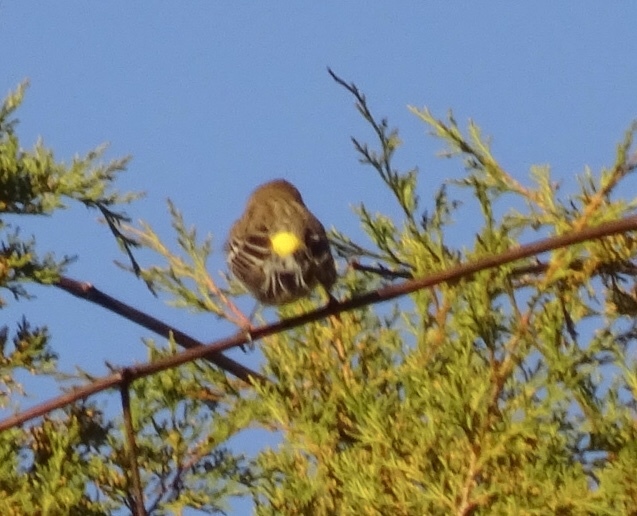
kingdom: Animalia
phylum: Chordata
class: Aves
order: Passeriformes
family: Parulidae
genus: Setophaga
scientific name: Setophaga coronata
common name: Myrtle warbler
